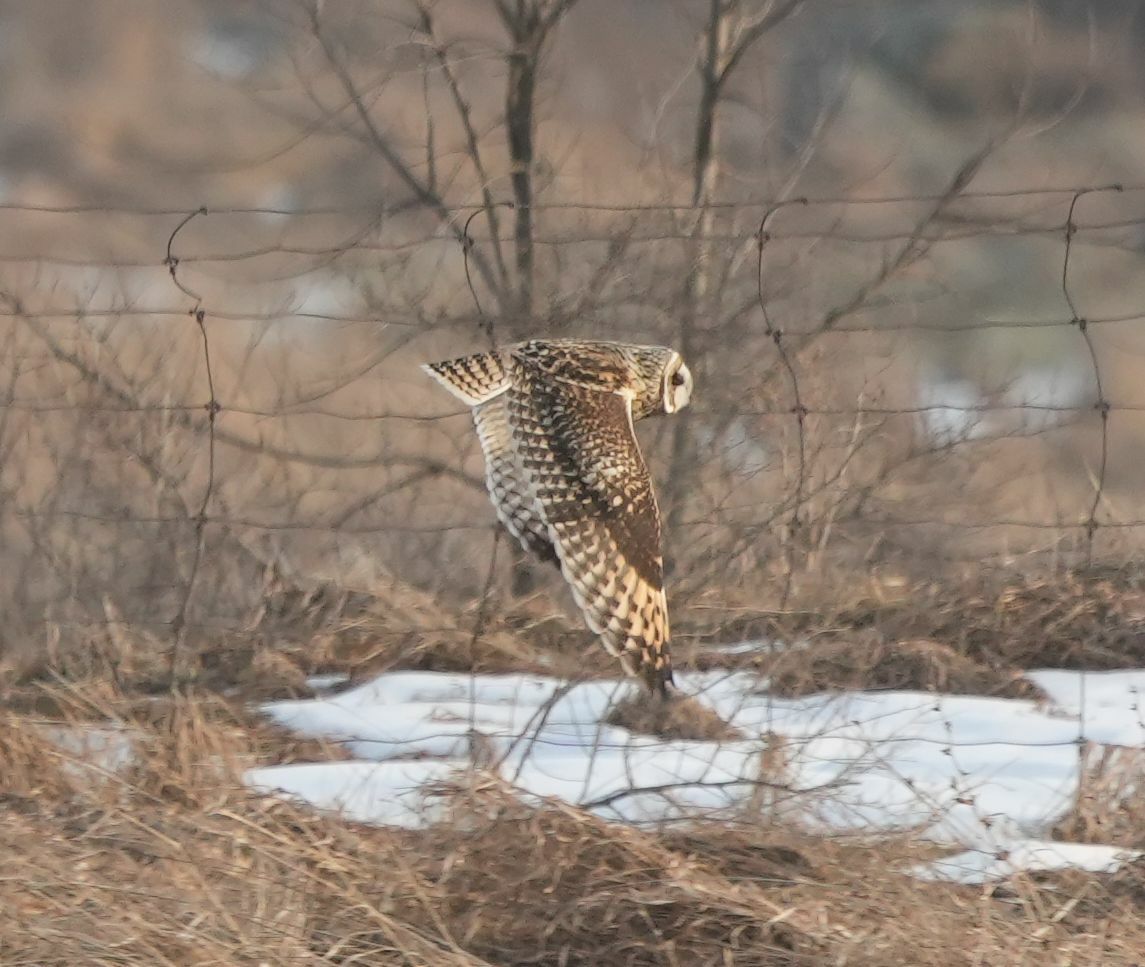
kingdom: Animalia
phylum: Chordata
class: Aves
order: Strigiformes
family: Strigidae
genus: Asio
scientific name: Asio flammeus
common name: Short-eared owl
